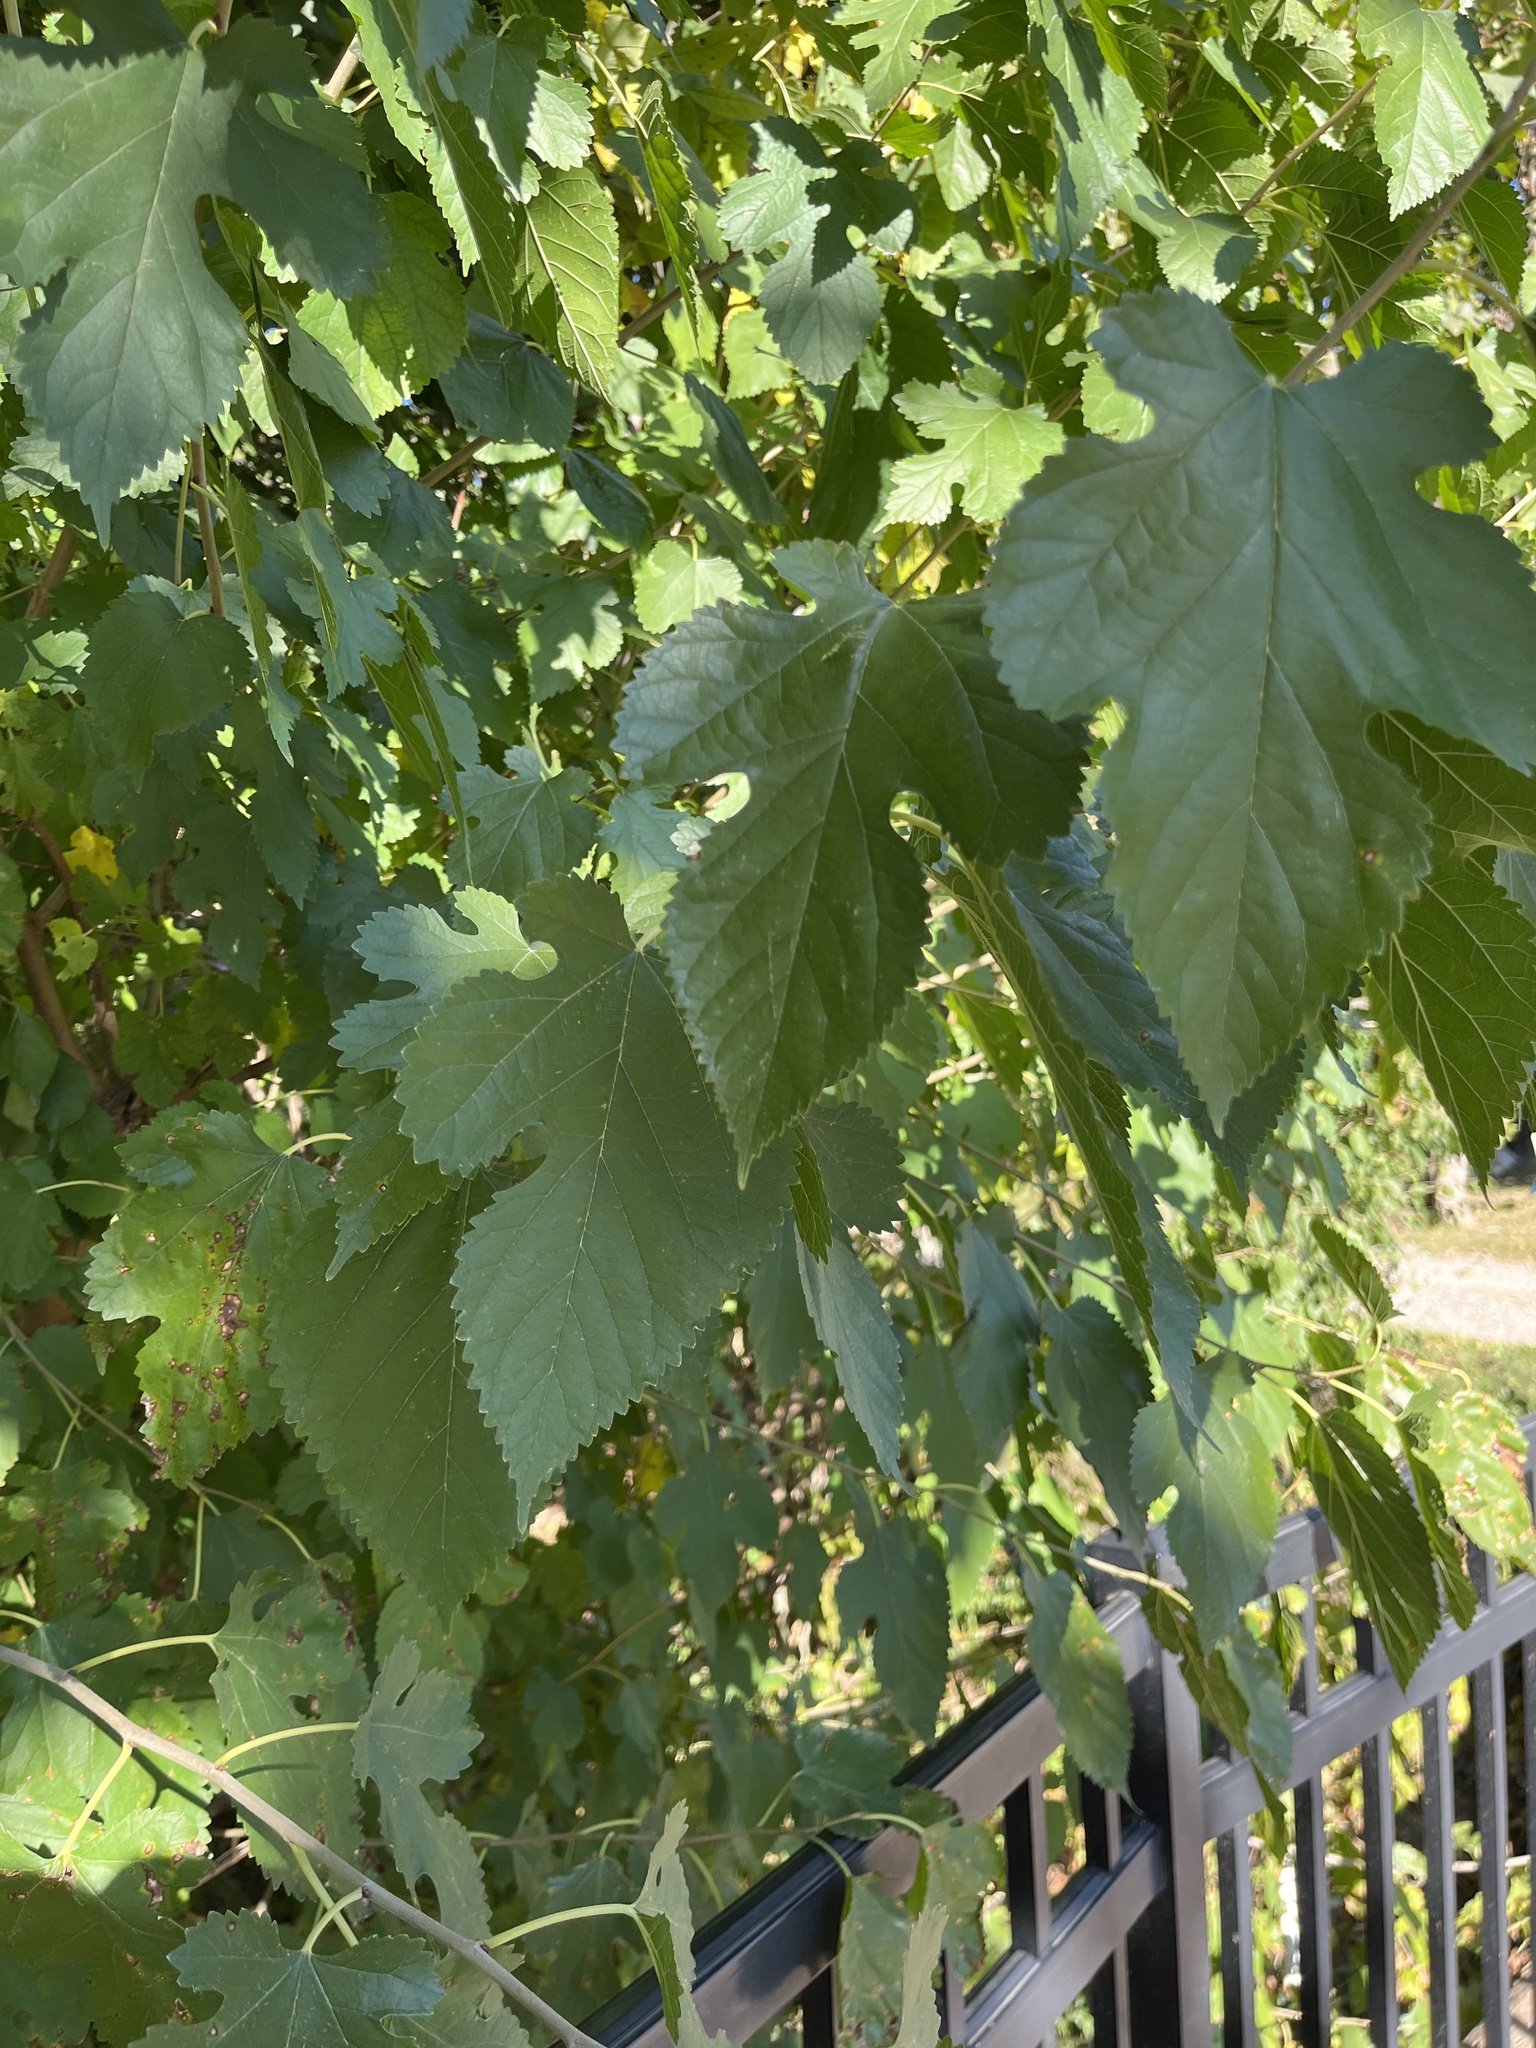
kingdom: Plantae
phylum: Tracheophyta
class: Magnoliopsida
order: Rosales
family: Moraceae
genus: Morus
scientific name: Morus alba
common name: White mulberry
